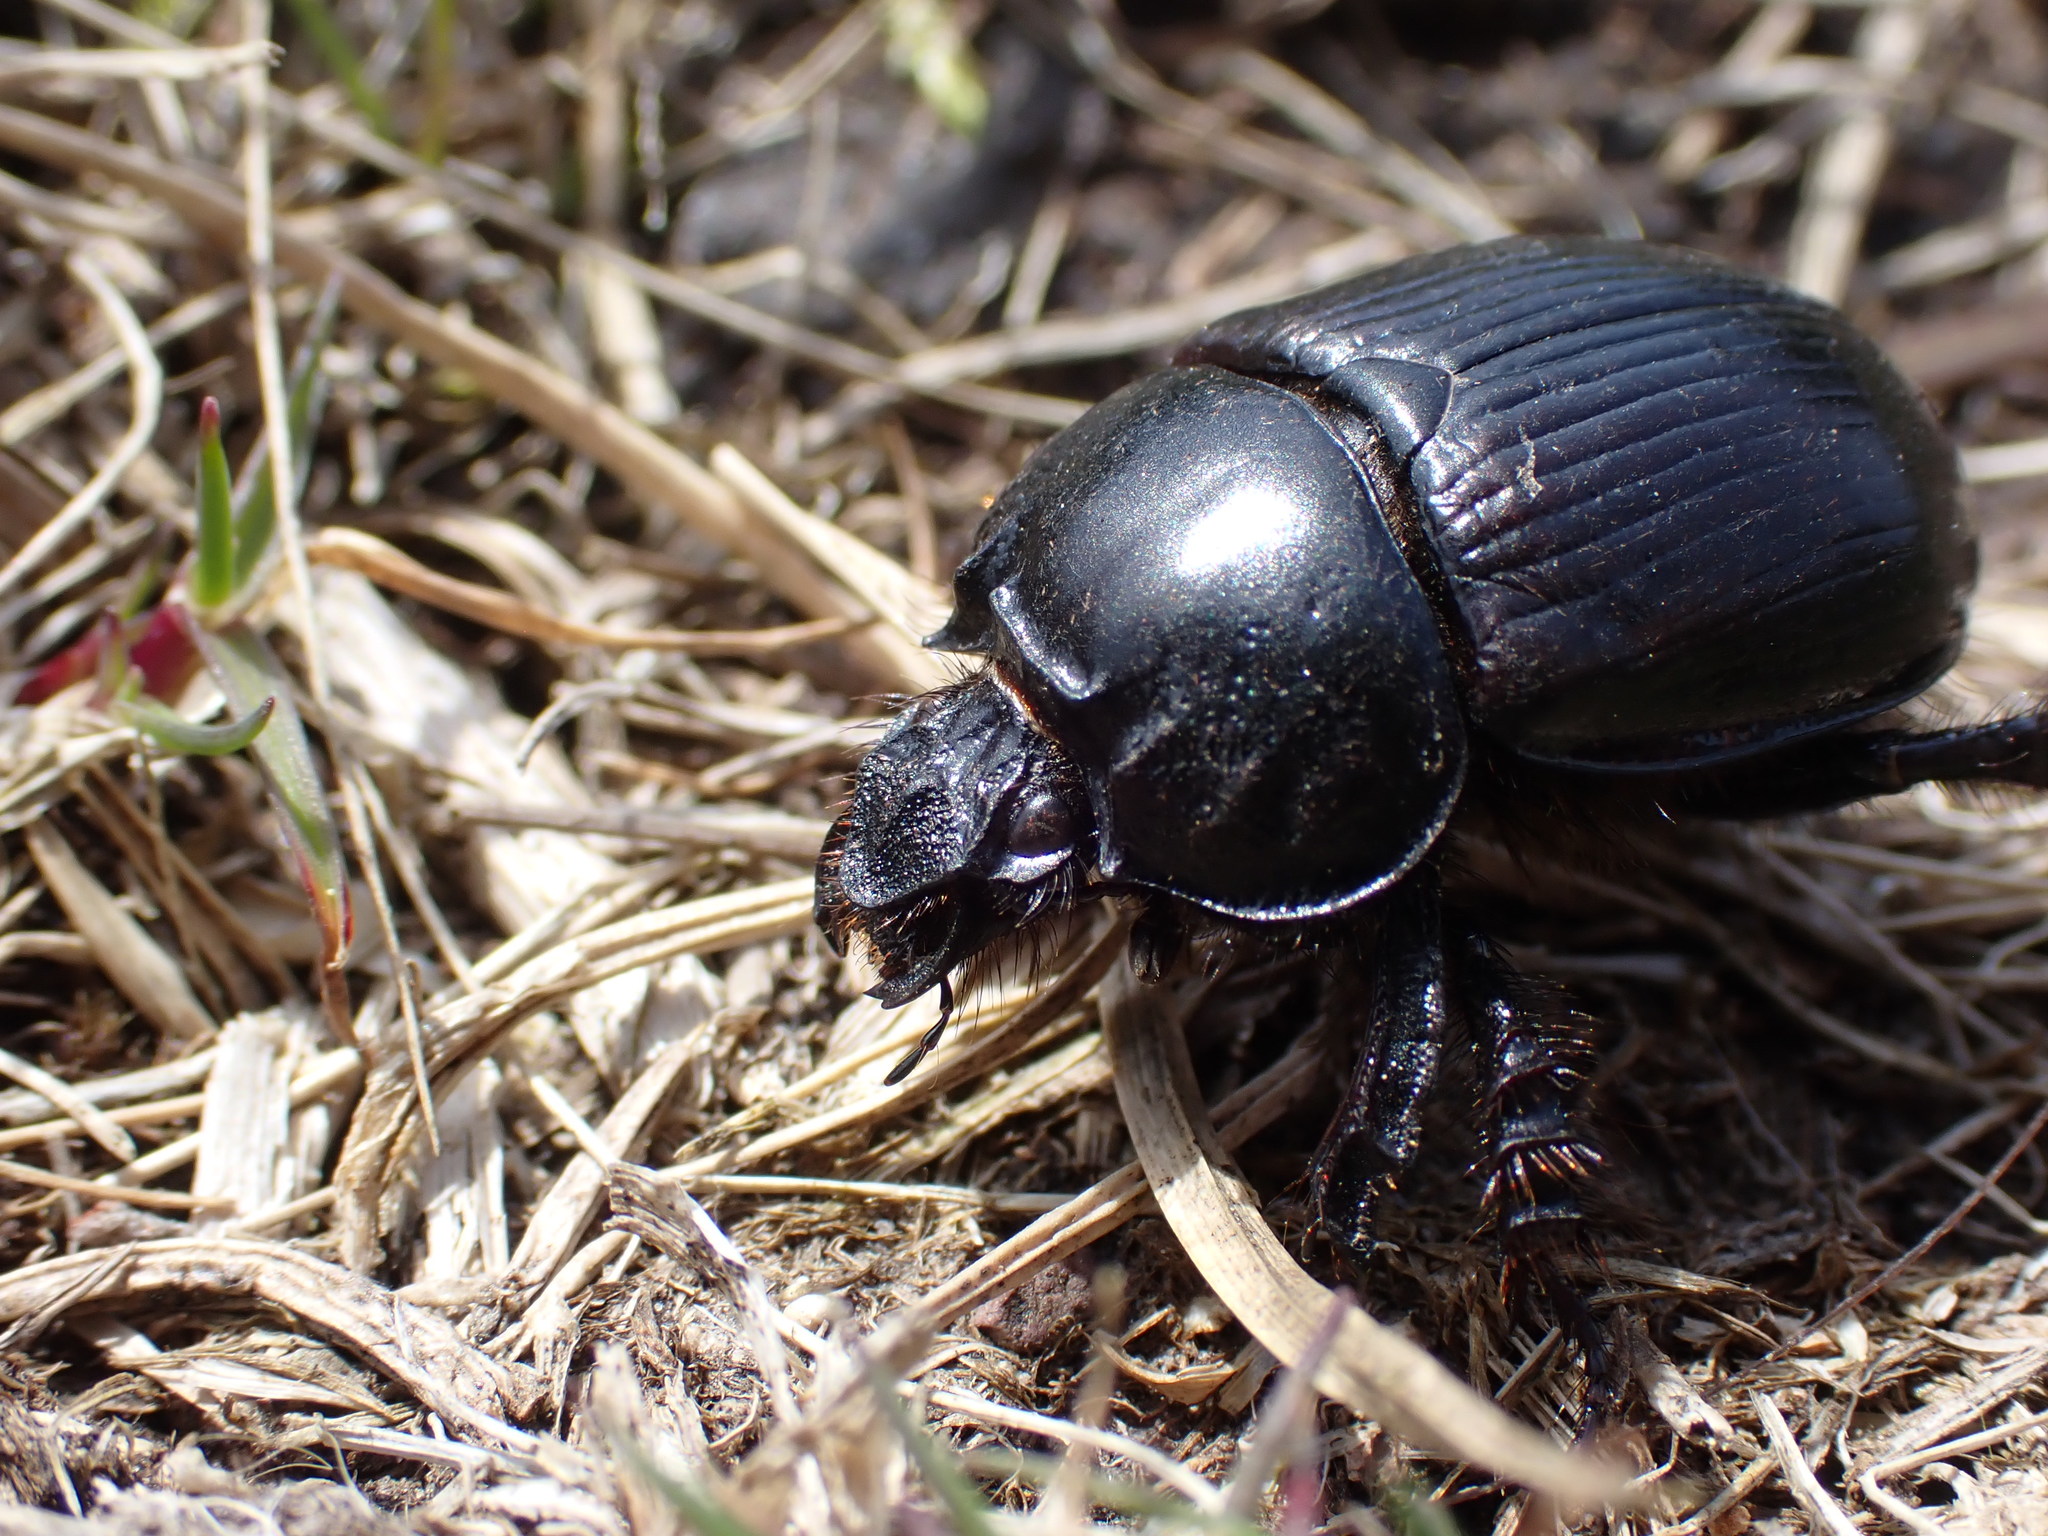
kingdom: Animalia
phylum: Arthropoda
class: Insecta
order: Coleoptera
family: Geotrupidae
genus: Typhaeus
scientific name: Typhaeus typhoeus
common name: Minotaur beetle
